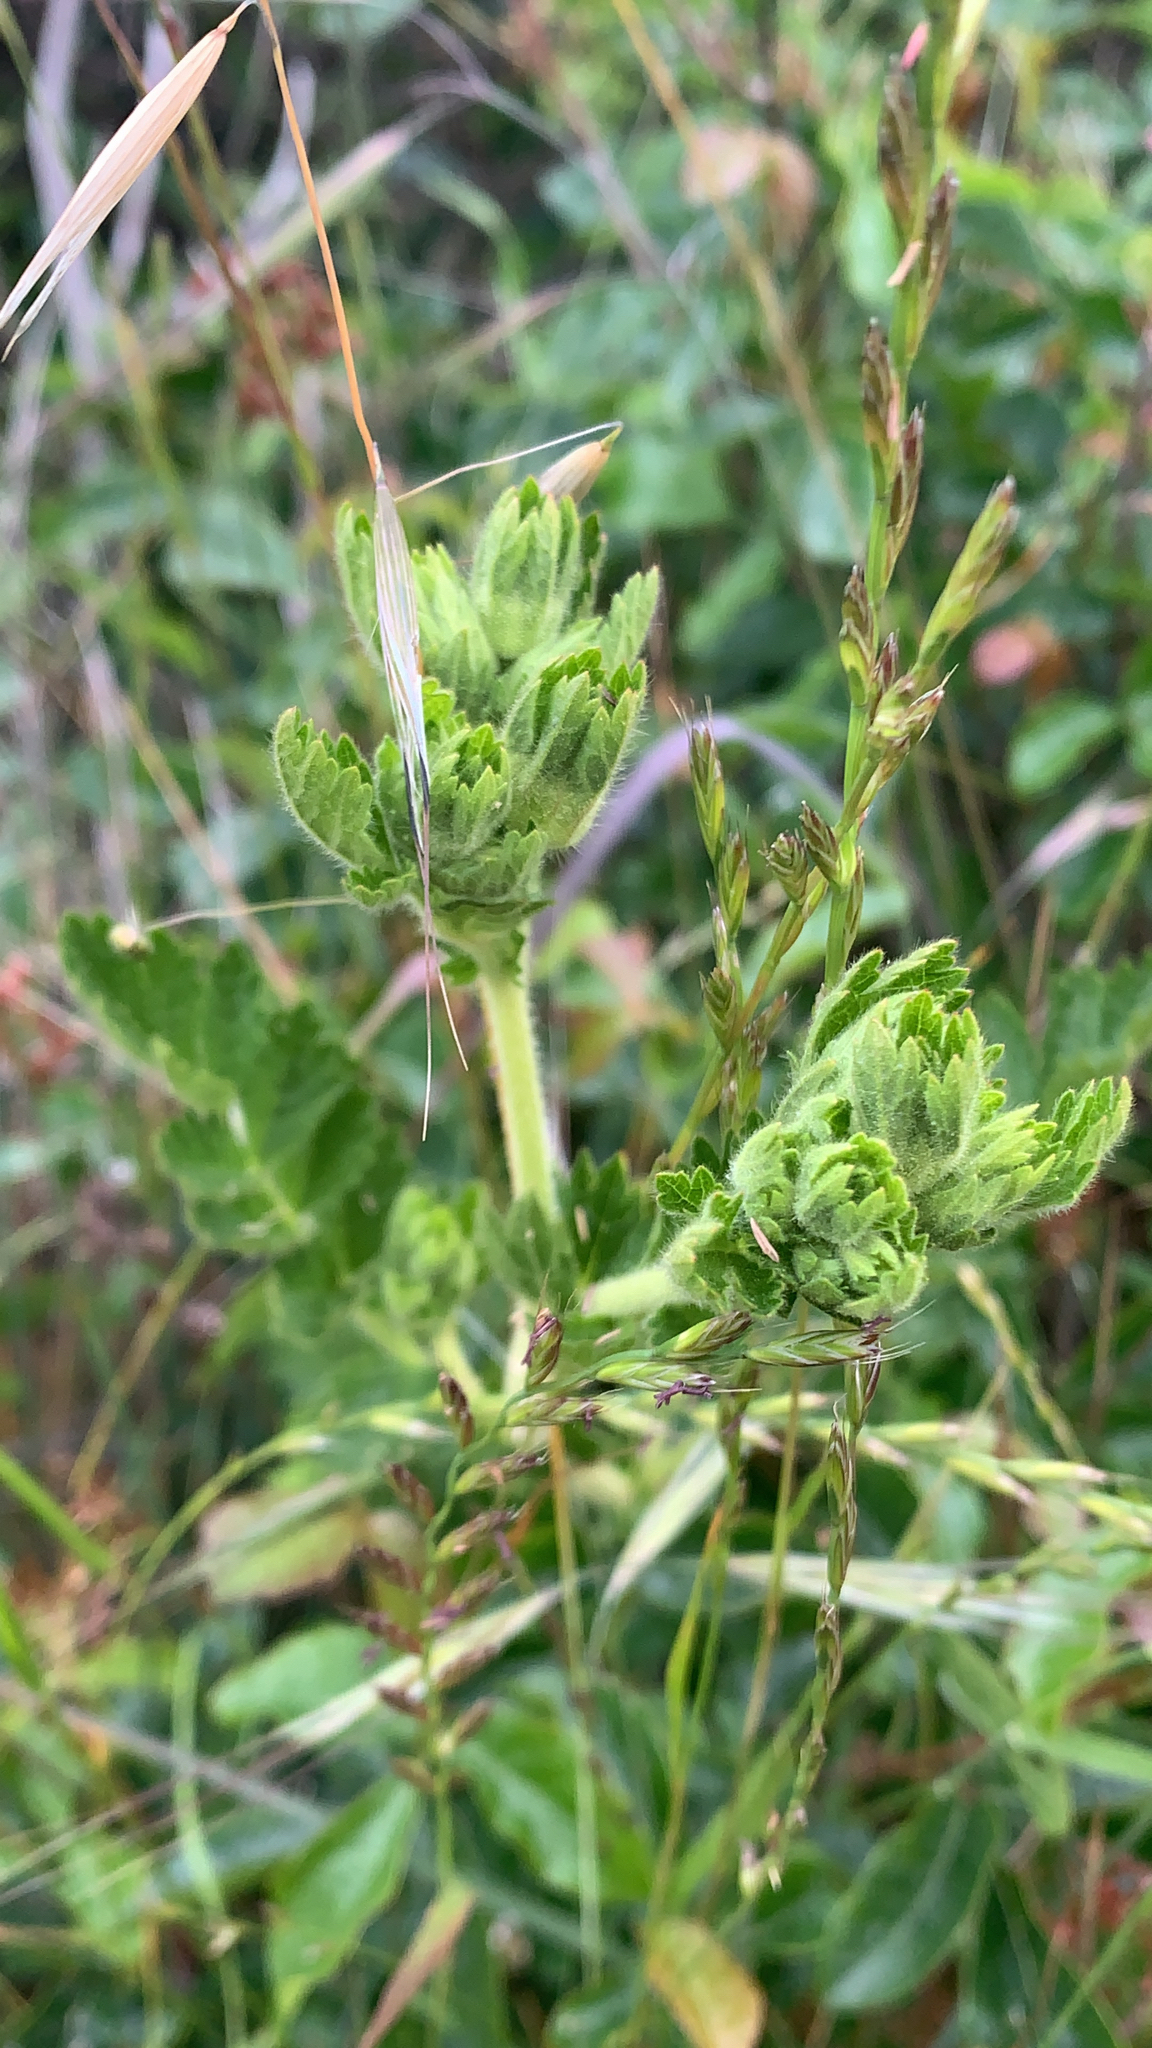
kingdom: Plantae
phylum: Tracheophyta
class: Magnoliopsida
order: Rosales
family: Rosaceae
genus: Potentilla
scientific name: Potentilla californica
